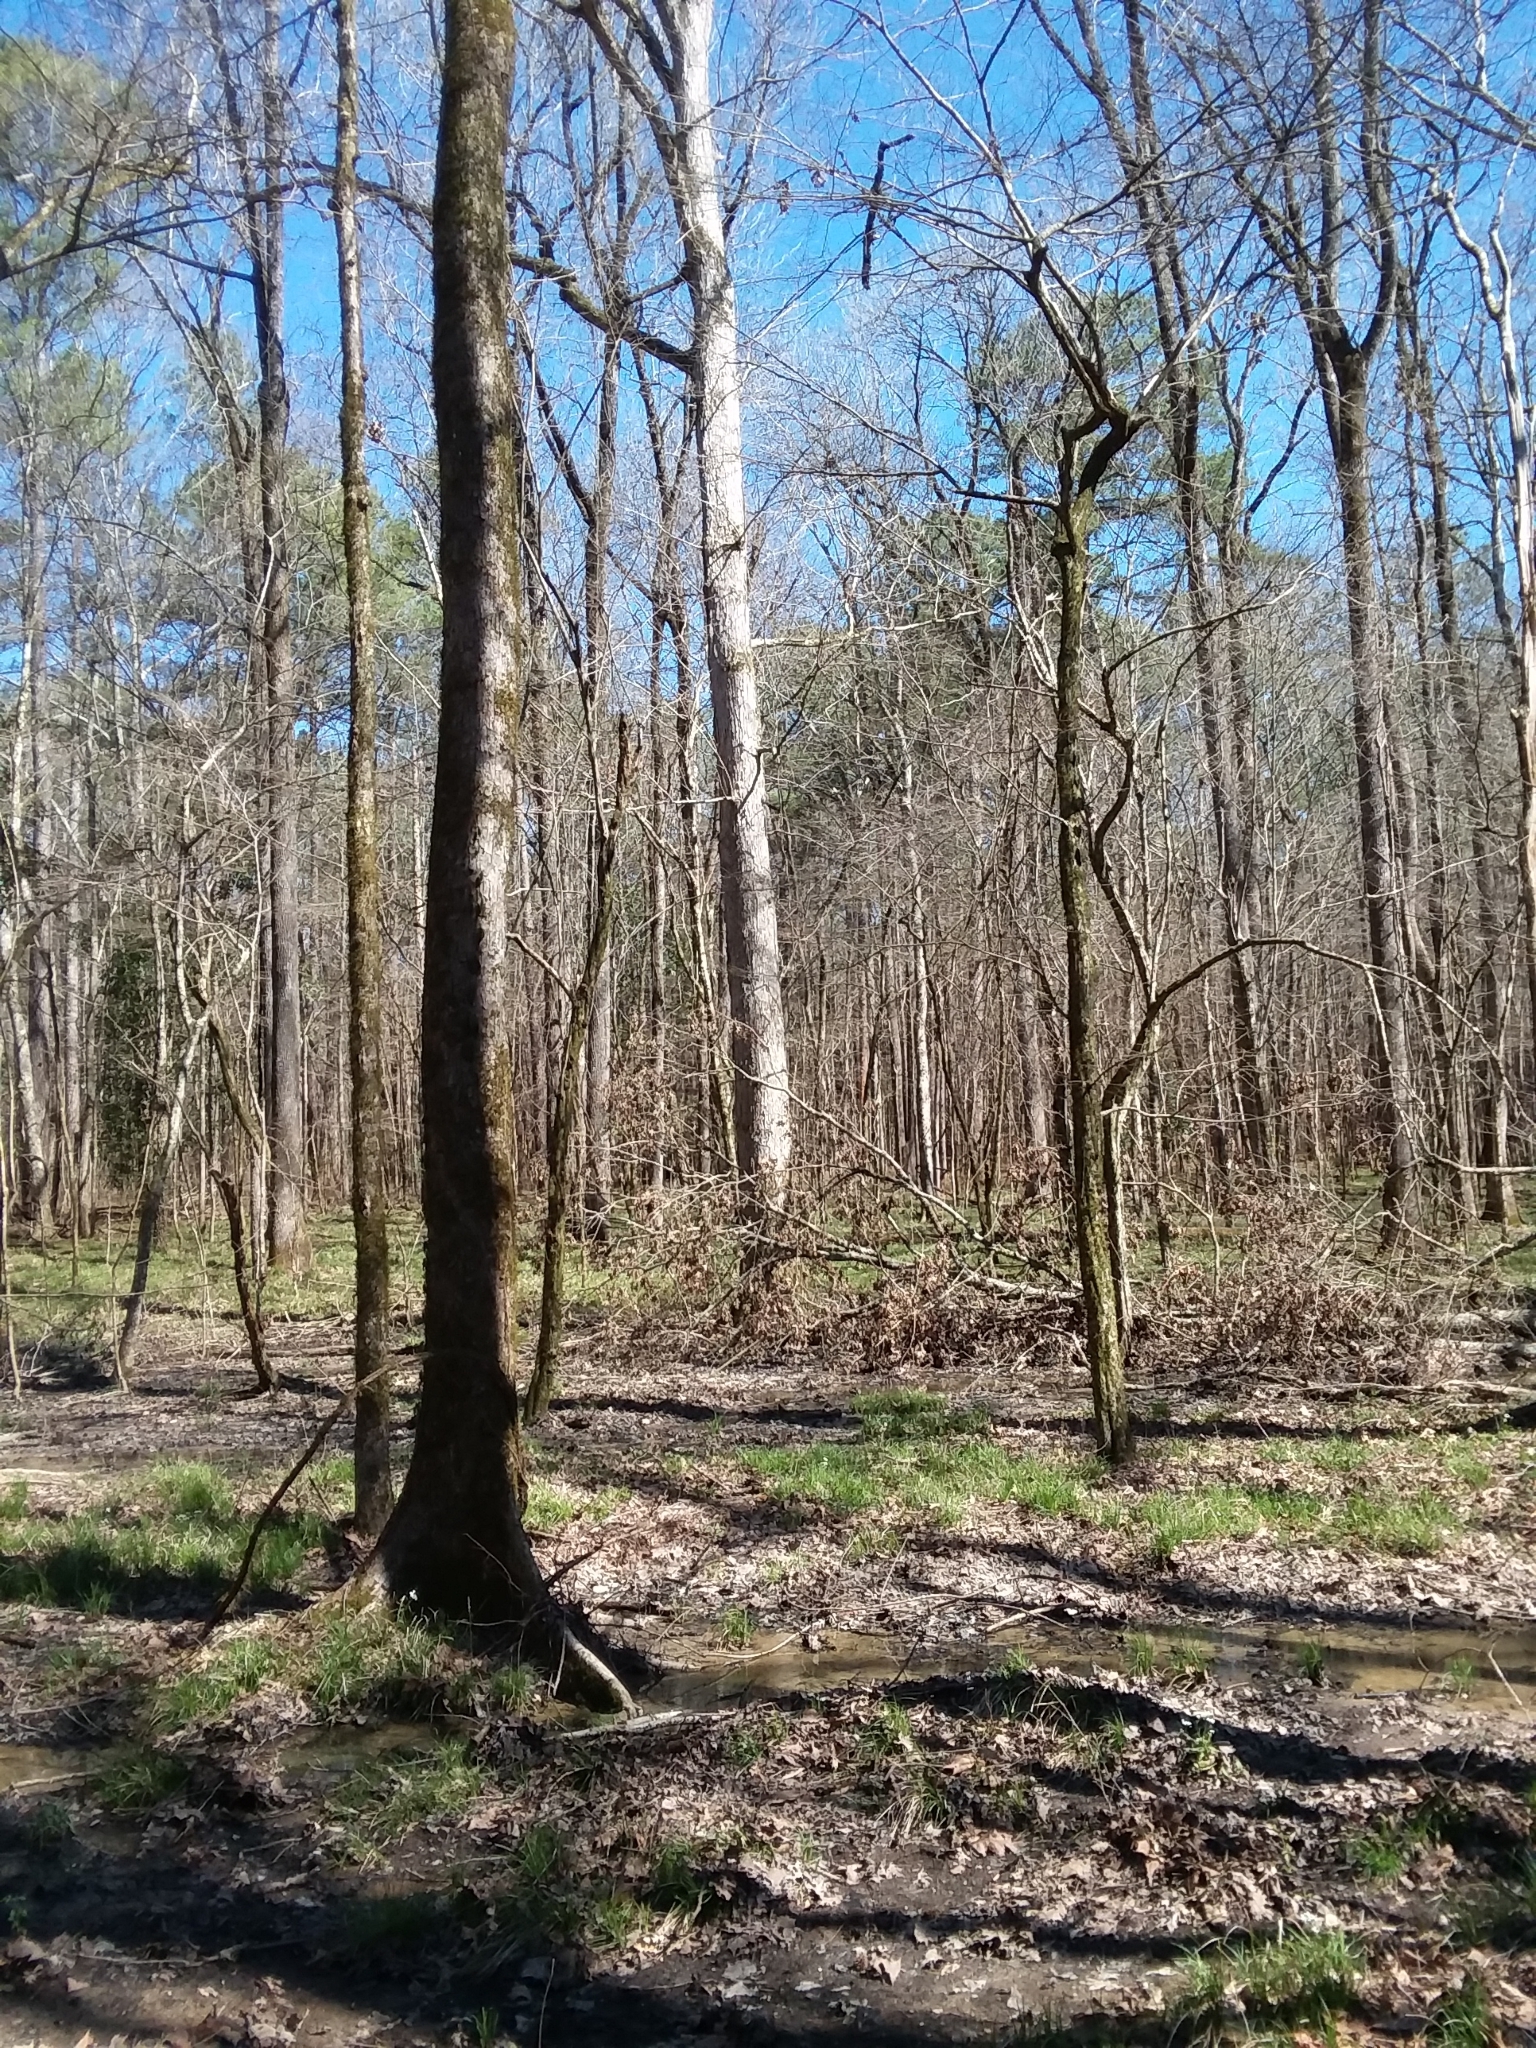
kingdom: Plantae
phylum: Tracheophyta
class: Magnoliopsida
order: Brassicales
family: Brassicaceae
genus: Cardamine
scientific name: Cardamine bulbosa
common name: Spring cress
